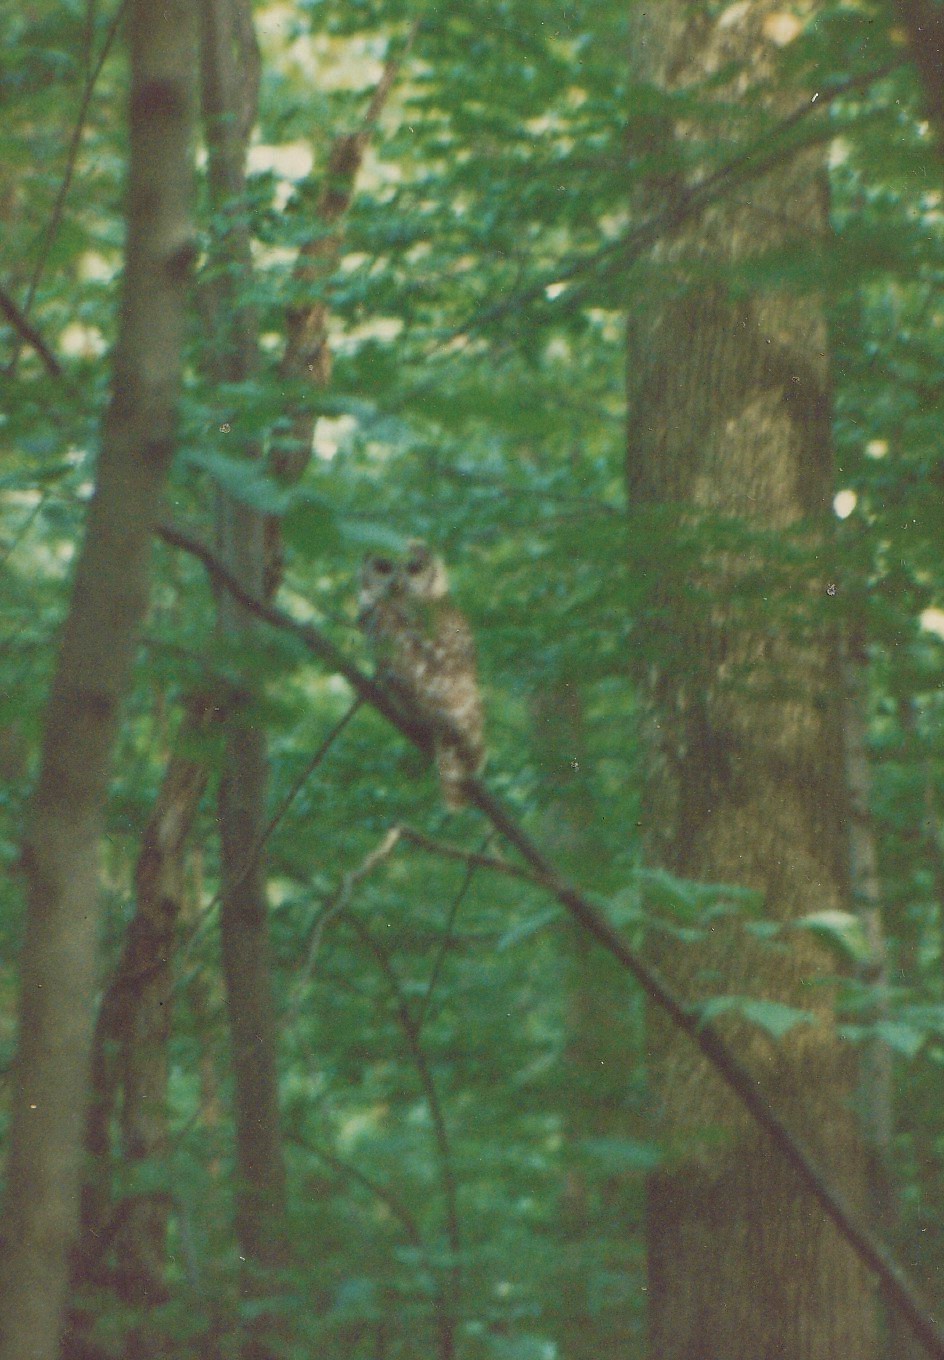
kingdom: Animalia
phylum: Chordata
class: Aves
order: Strigiformes
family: Strigidae
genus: Strix
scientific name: Strix varia
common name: Barred owl
